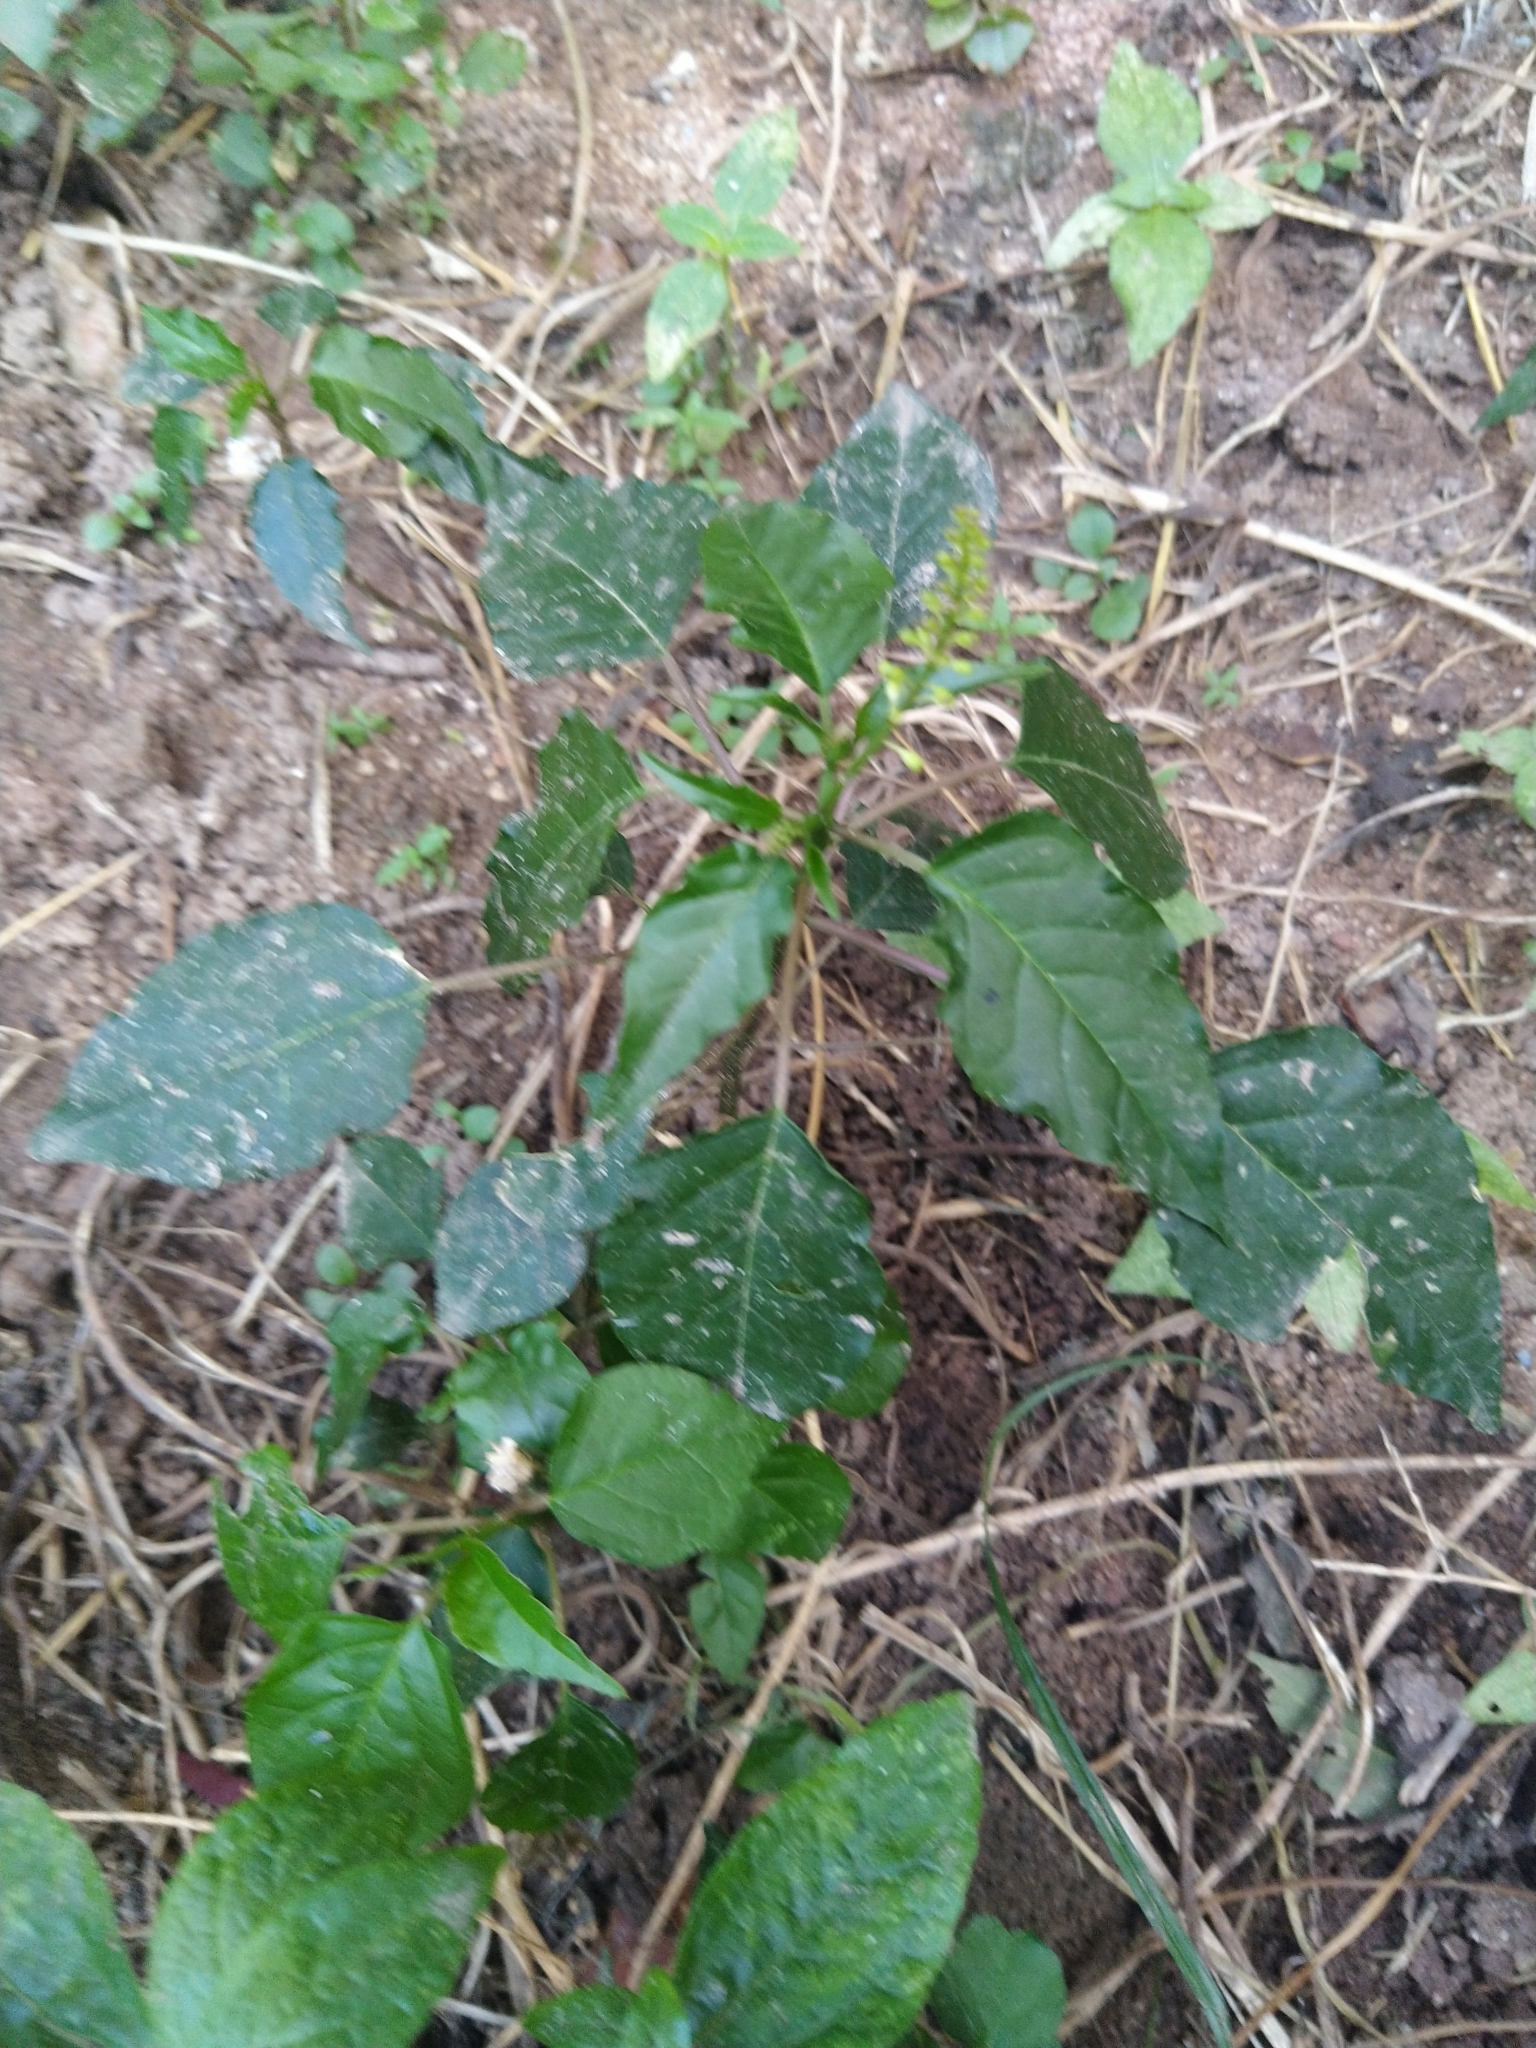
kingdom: Plantae
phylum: Tracheophyta
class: Magnoliopsida
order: Caryophyllales
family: Phytolaccaceae
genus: Rivina
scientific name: Rivina humilis
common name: Rougeplant
